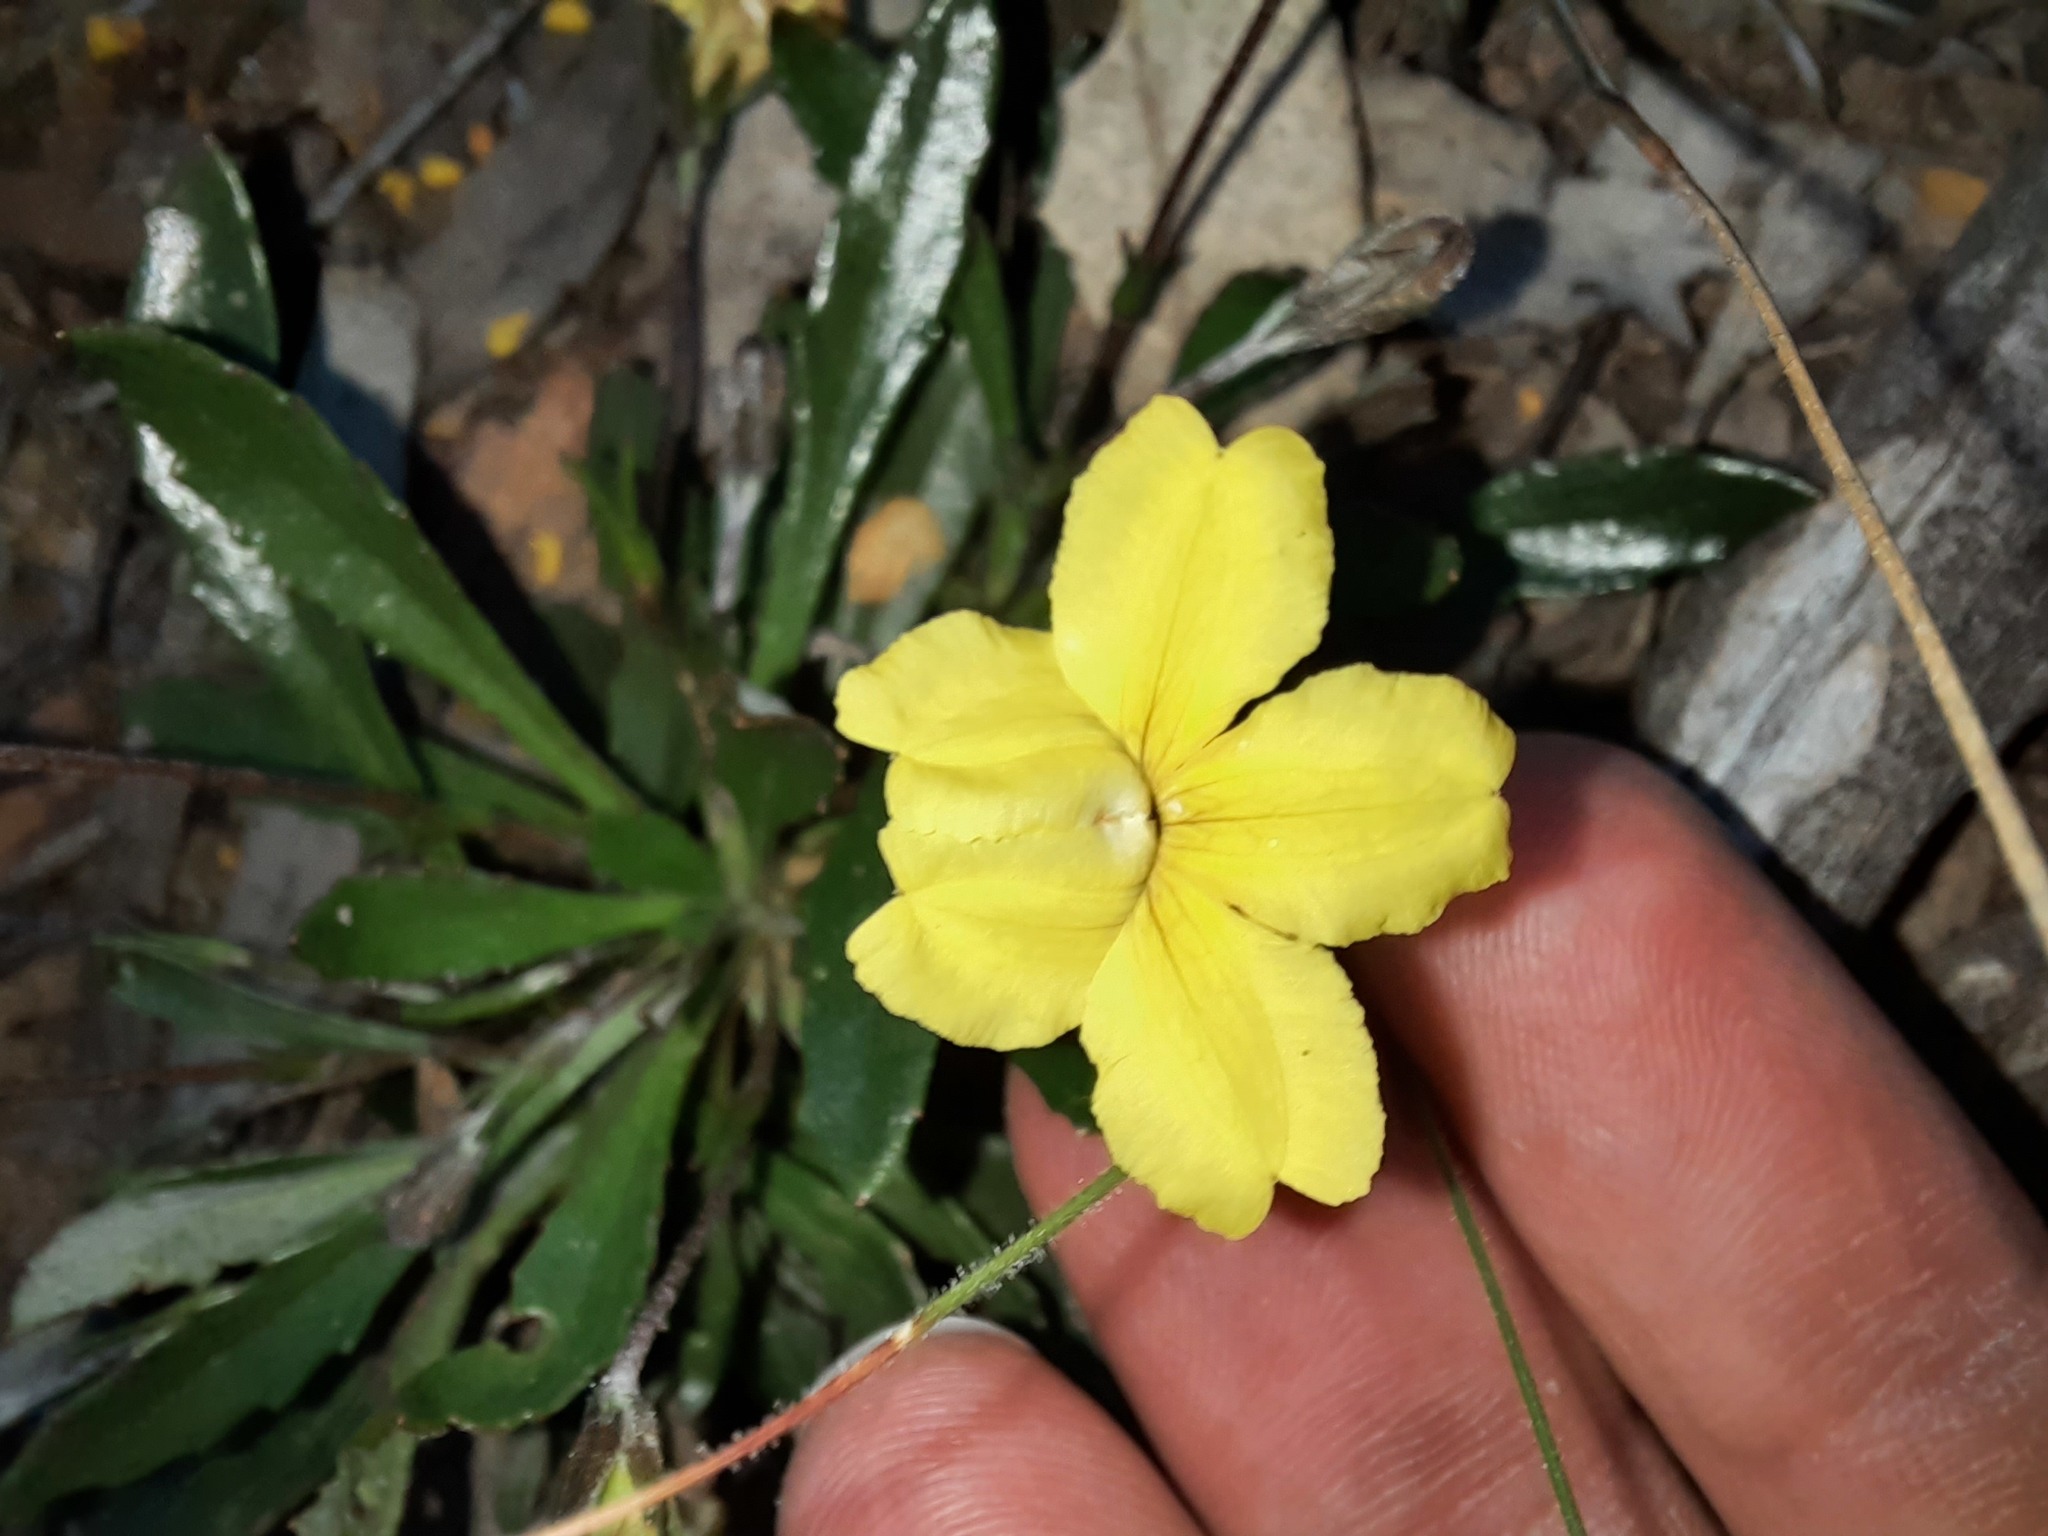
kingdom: Plantae
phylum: Tracheophyta
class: Magnoliopsida
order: Asterales
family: Goodeniaceae
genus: Goodenia
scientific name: Goodenia blackiana
